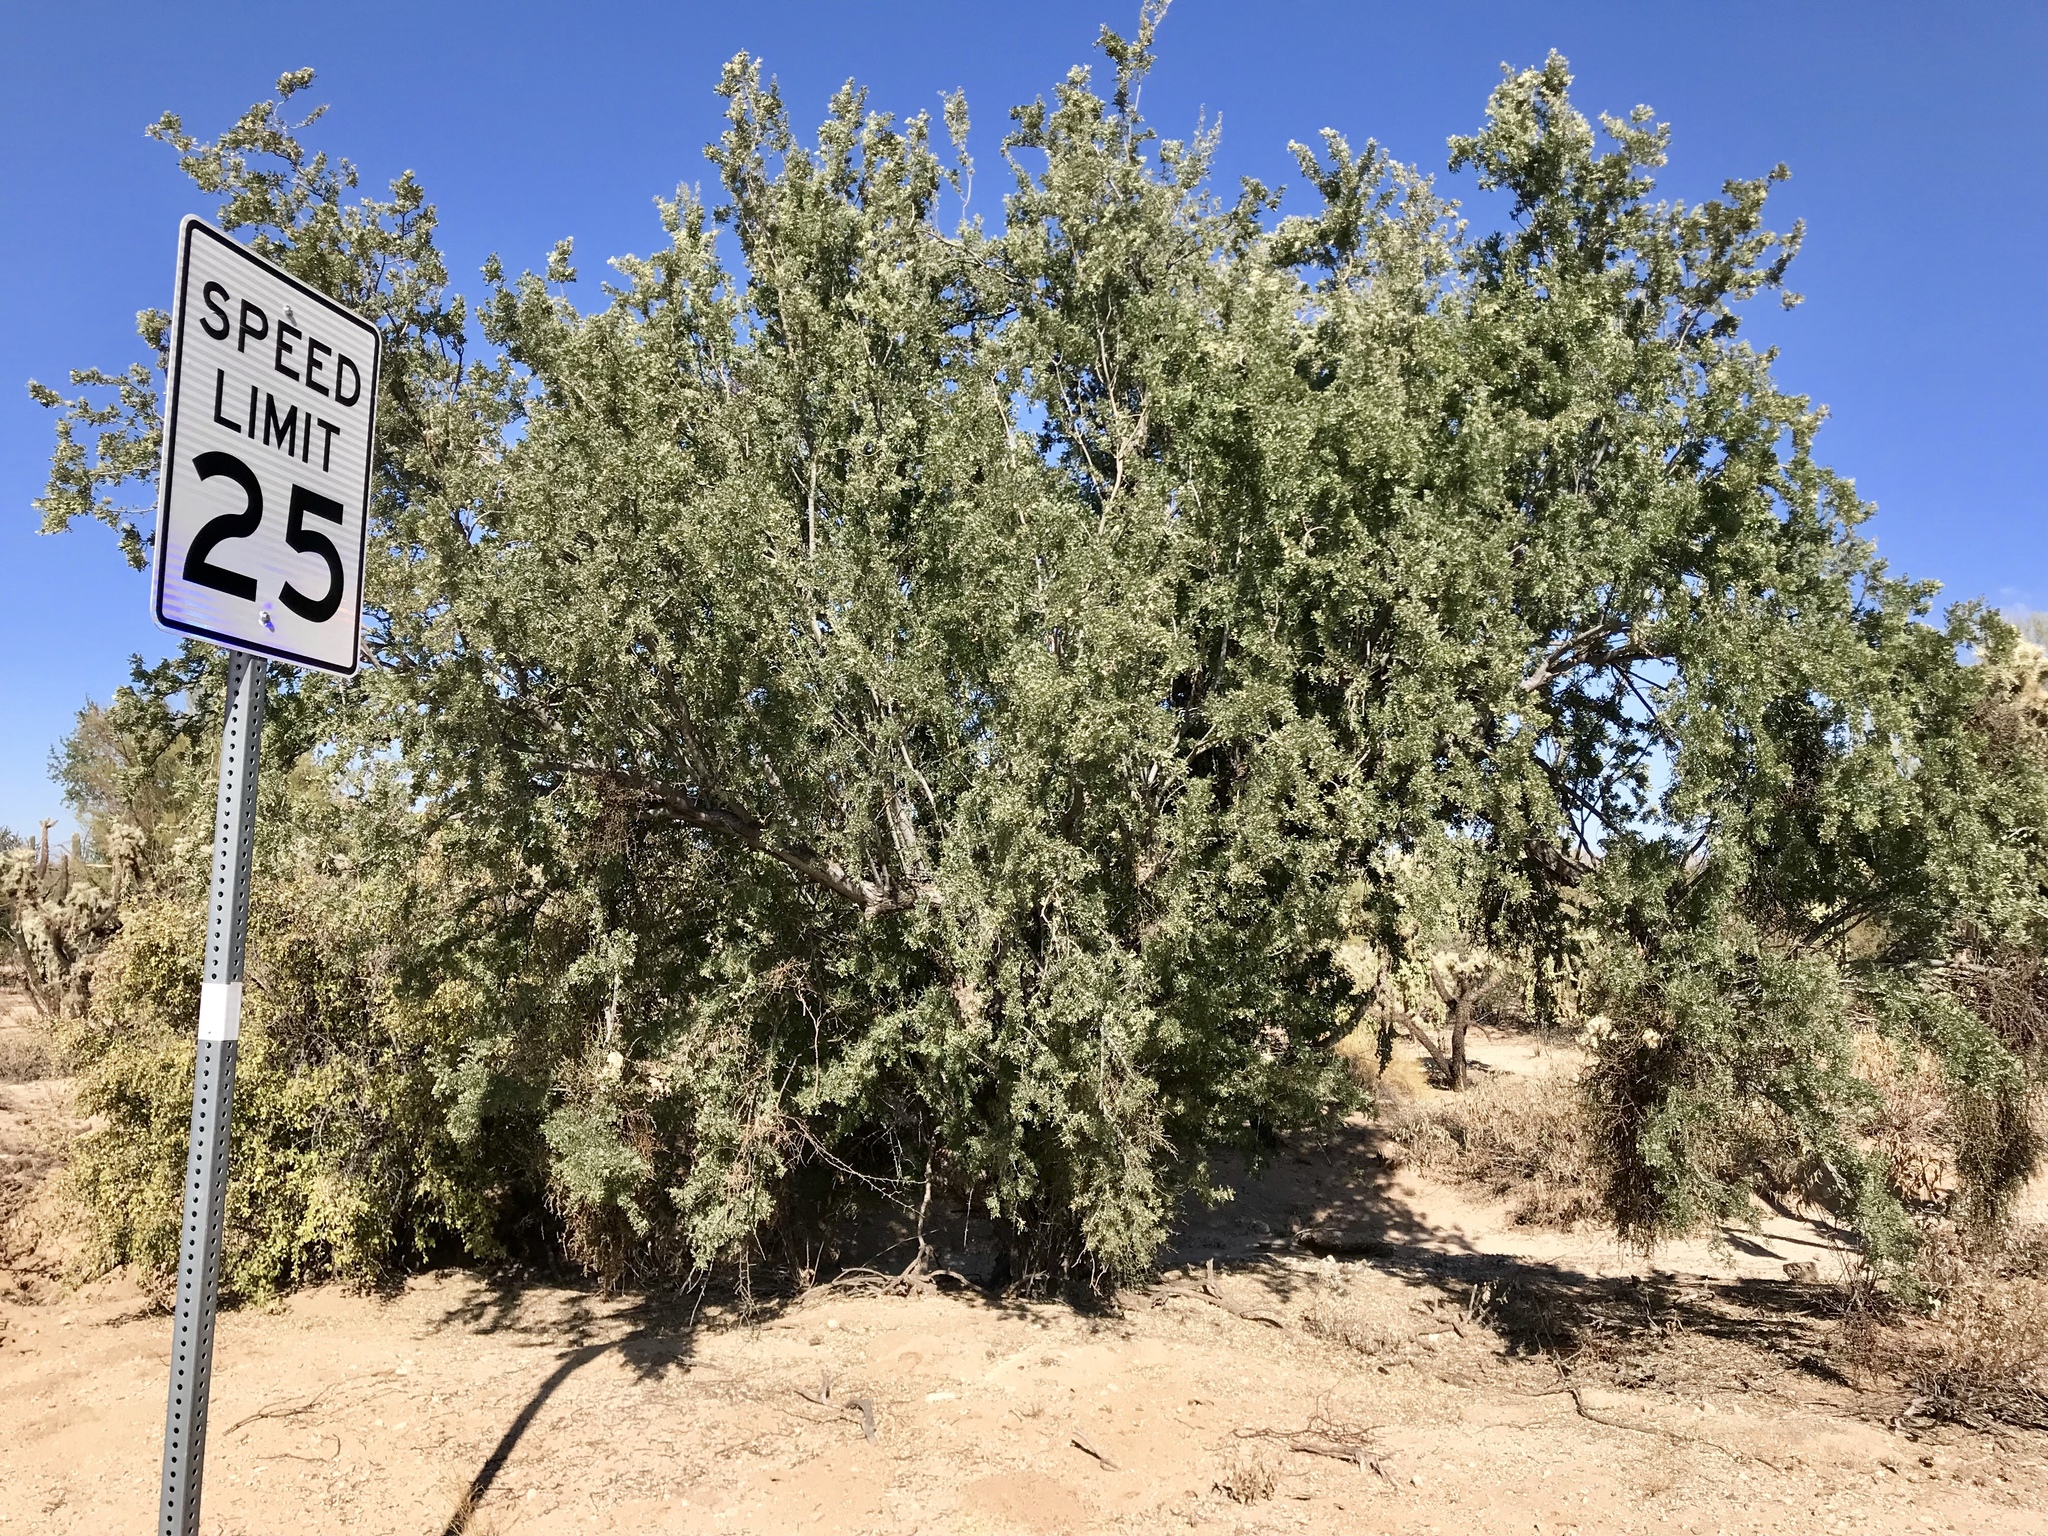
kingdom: Plantae
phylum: Tracheophyta
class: Magnoliopsida
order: Fabales
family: Fabaceae
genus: Olneya
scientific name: Olneya tesota
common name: Desert ironwood
